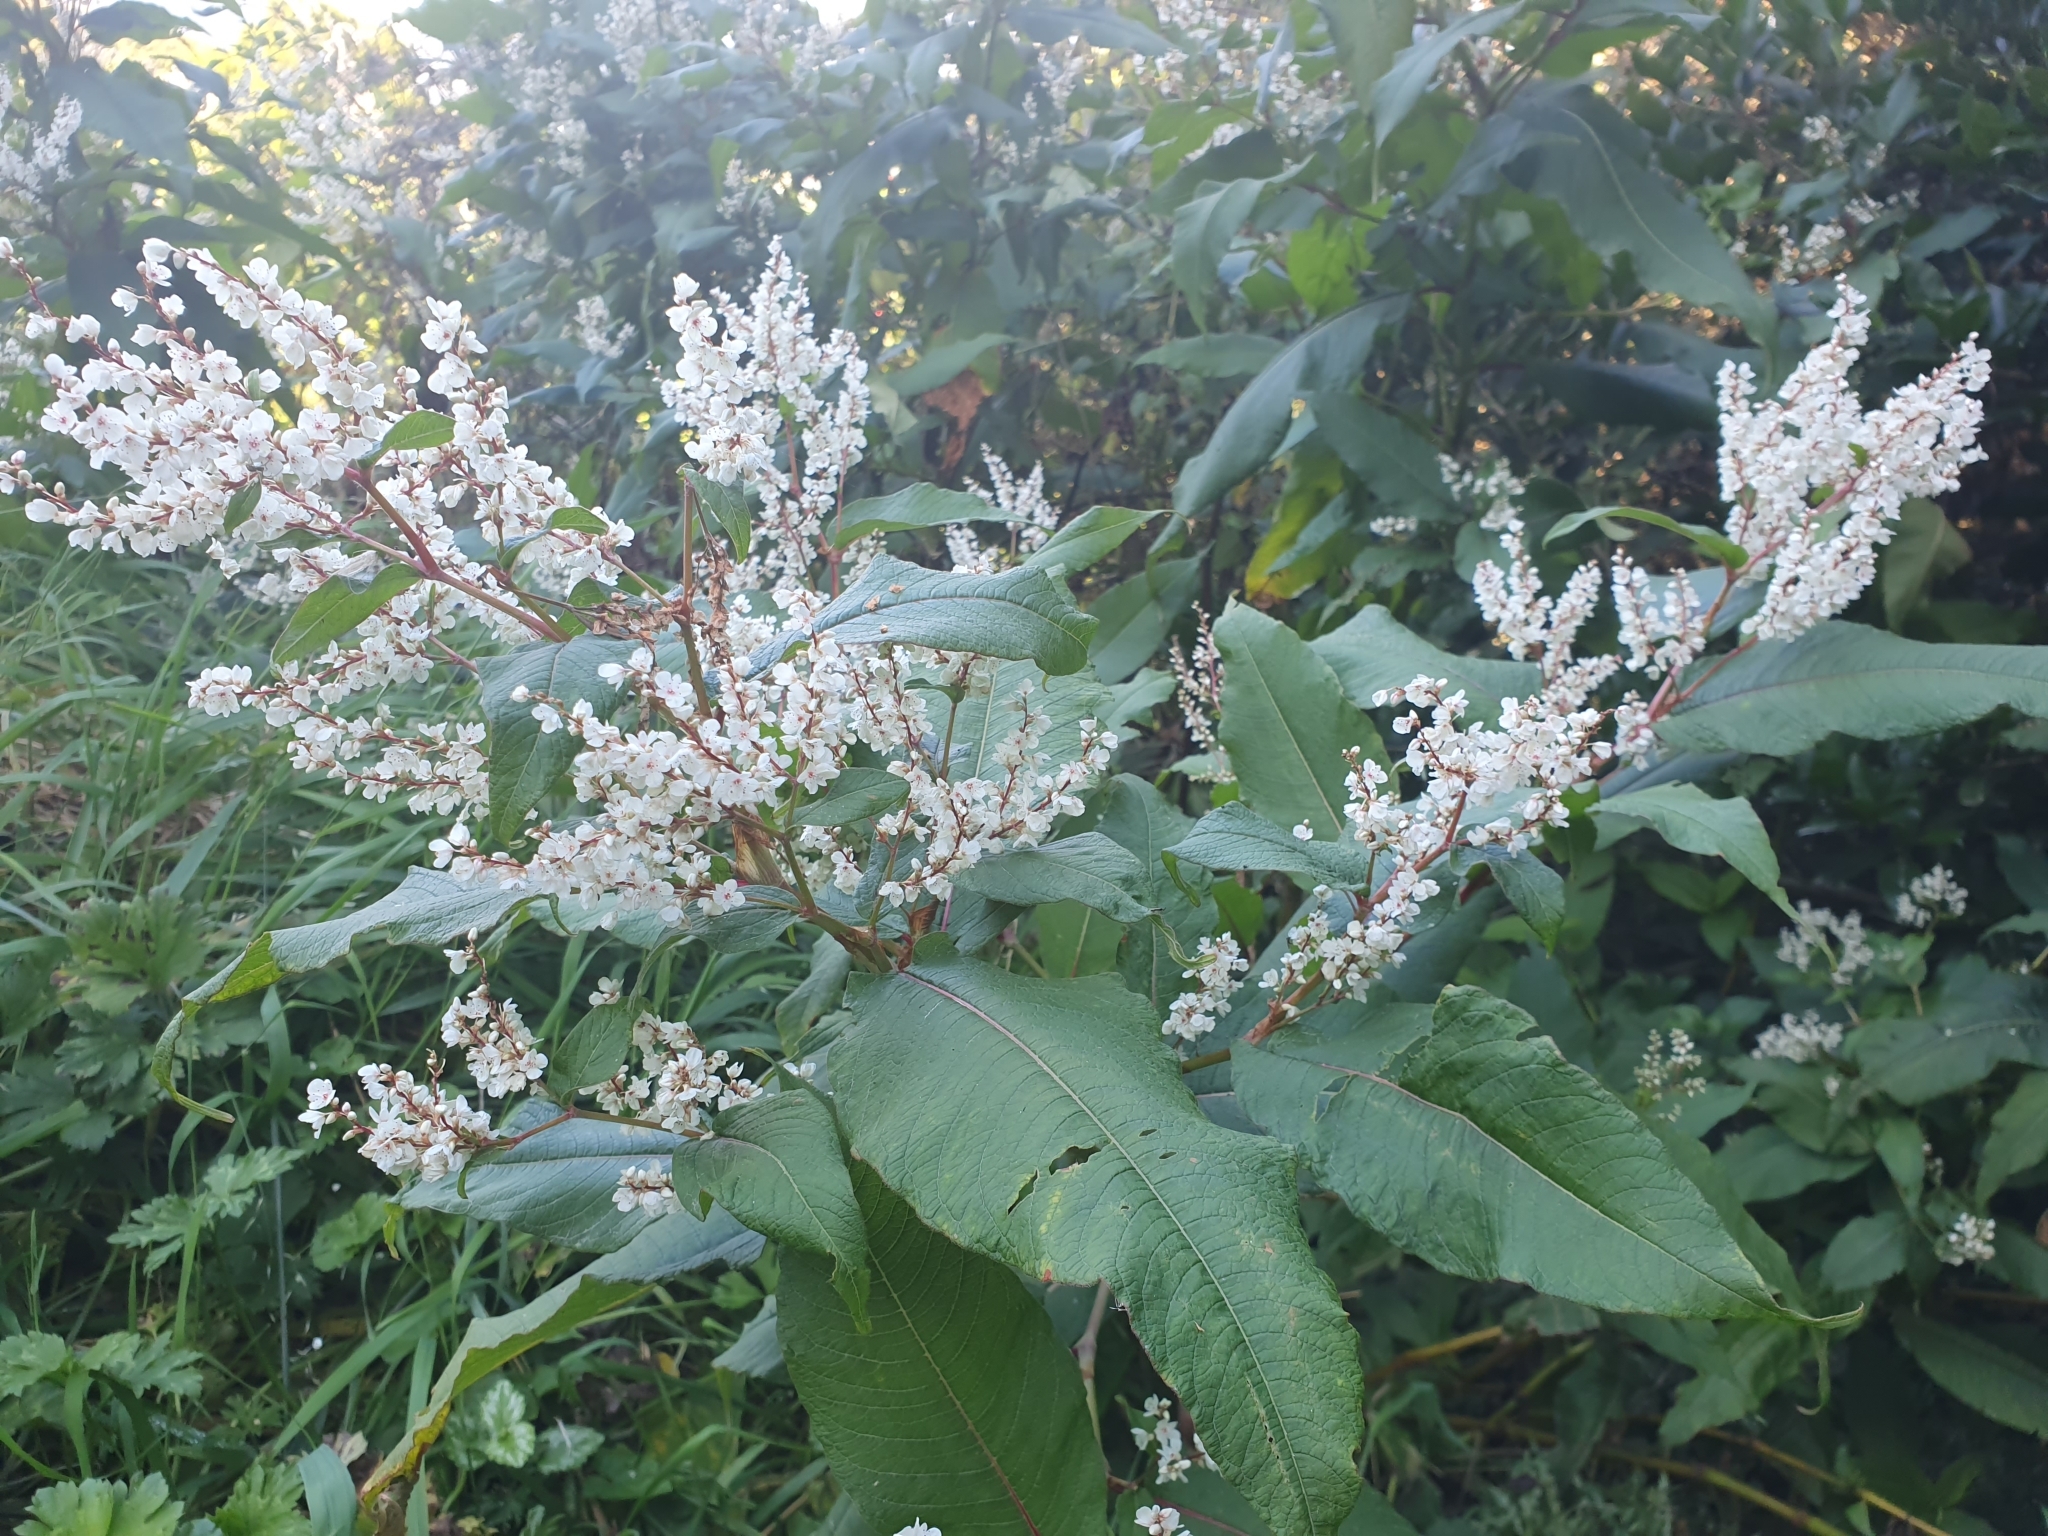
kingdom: Plantae
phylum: Tracheophyta
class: Magnoliopsida
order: Caryophyllales
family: Polygonaceae
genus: Koenigia
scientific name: Koenigia polystachya
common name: Himalayan knotweed
